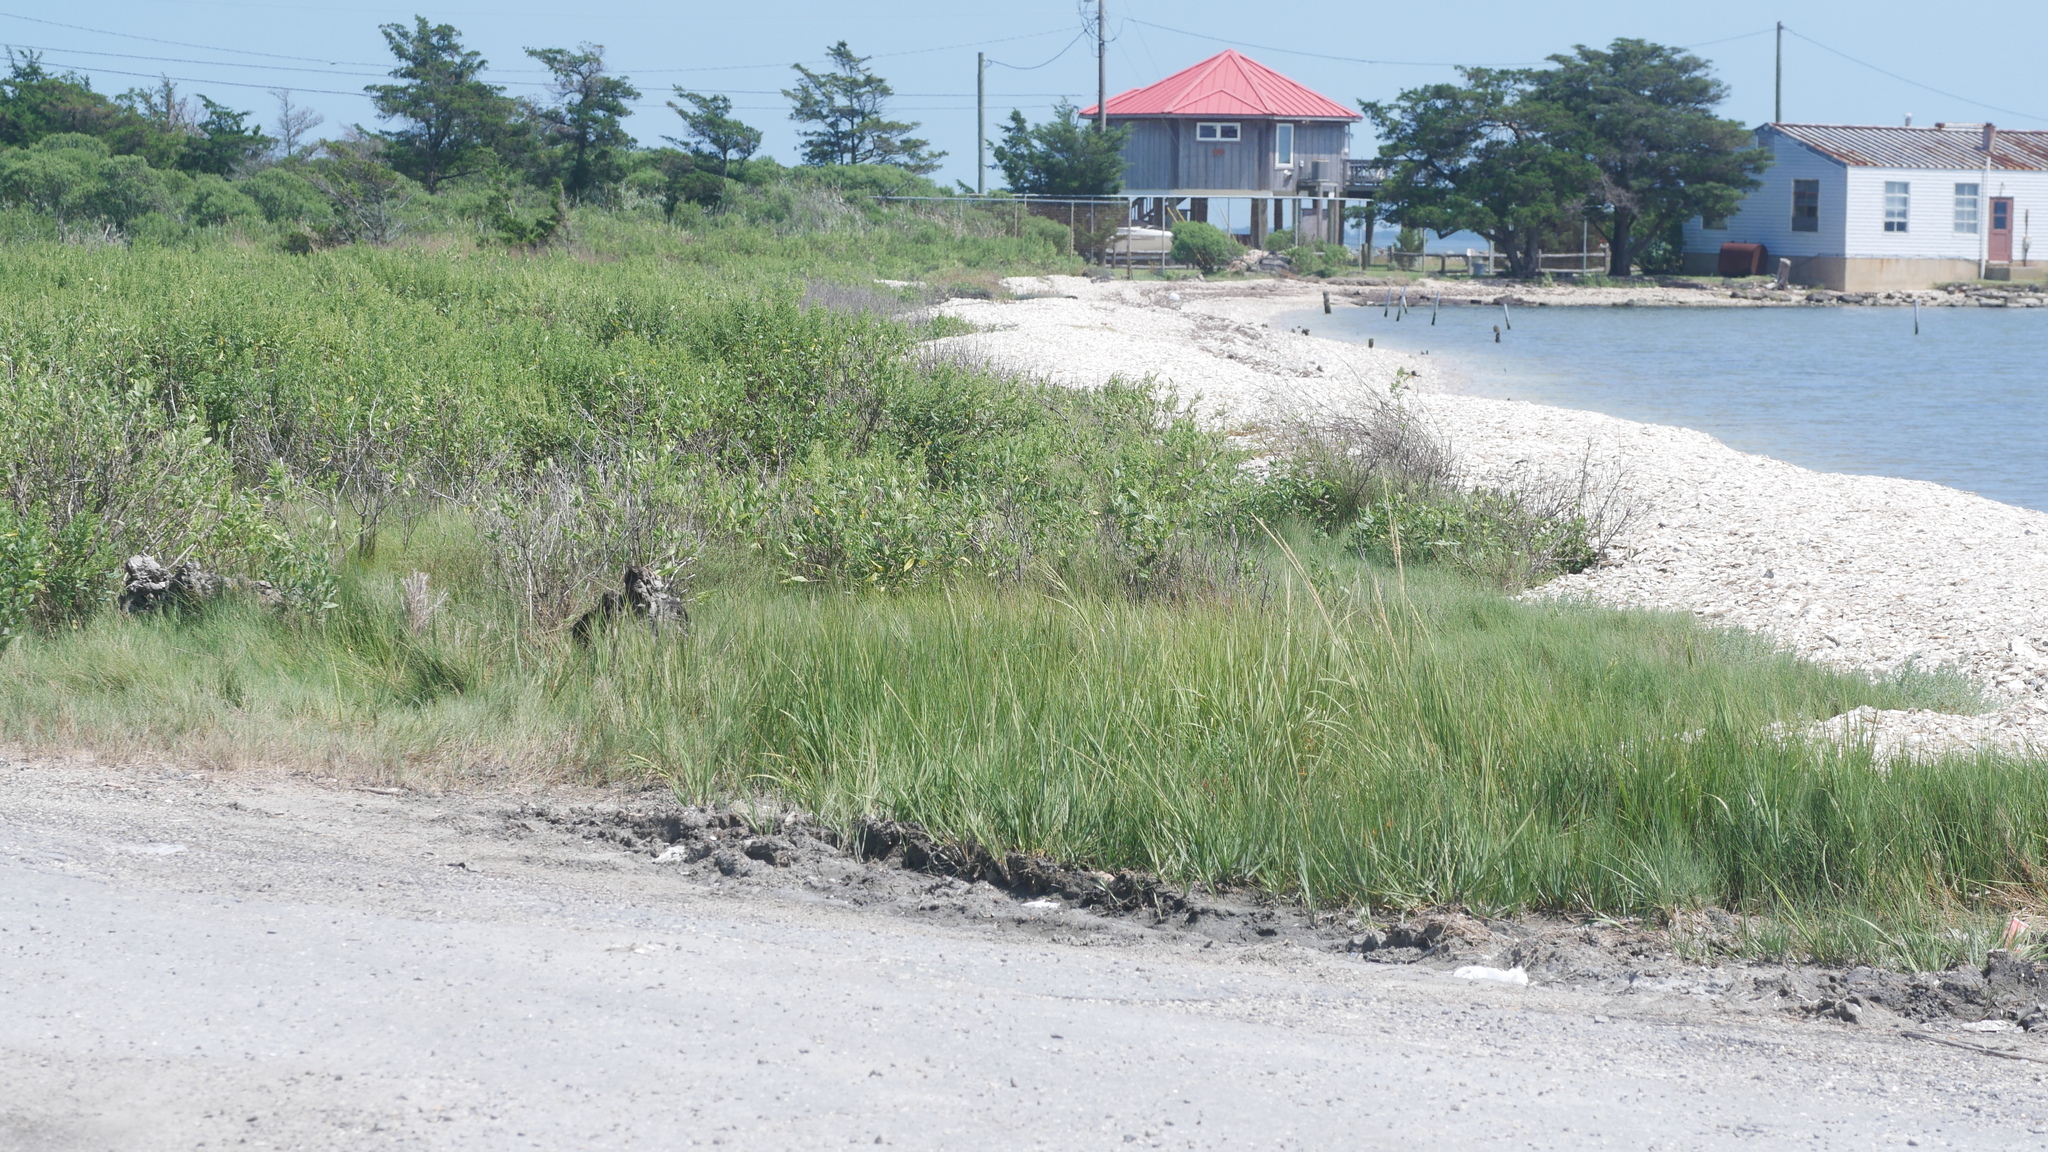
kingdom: Animalia
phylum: Arthropoda
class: Malacostraca
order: Isopoda
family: Halophilosciidae
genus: Halophiloscia
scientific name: Halophiloscia couchii
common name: Isopod
